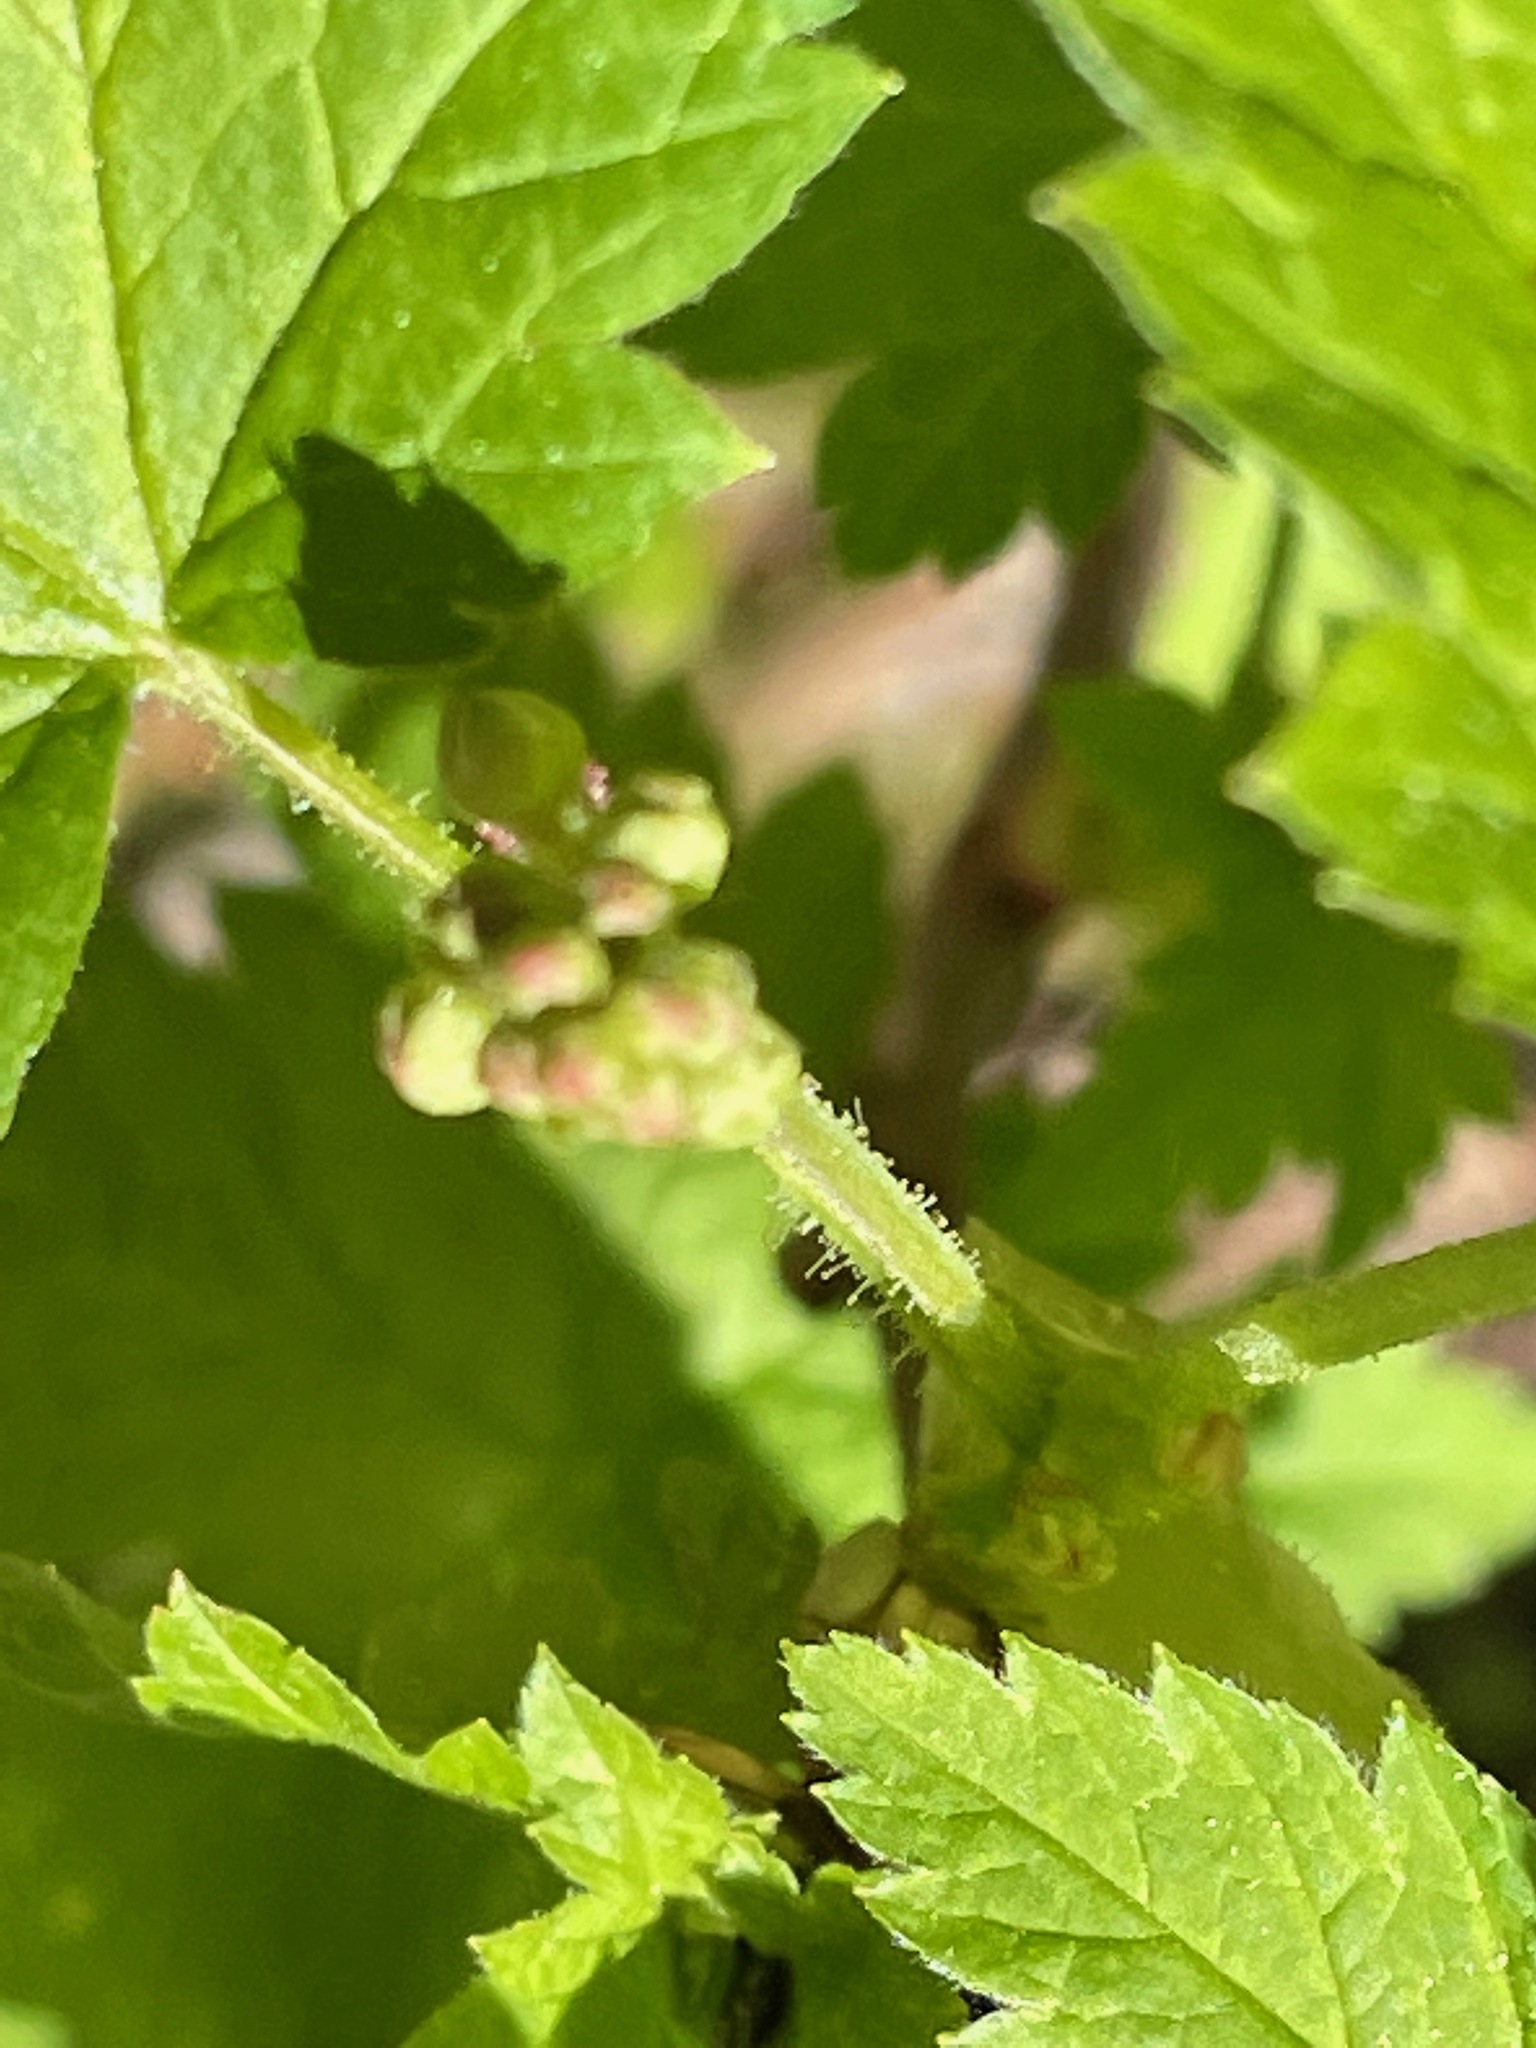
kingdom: Plantae
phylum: Tracheophyta
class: Magnoliopsida
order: Saxifragales
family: Grossulariaceae
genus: Ribes
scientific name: Ribes glandulosum
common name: Skunk currant
